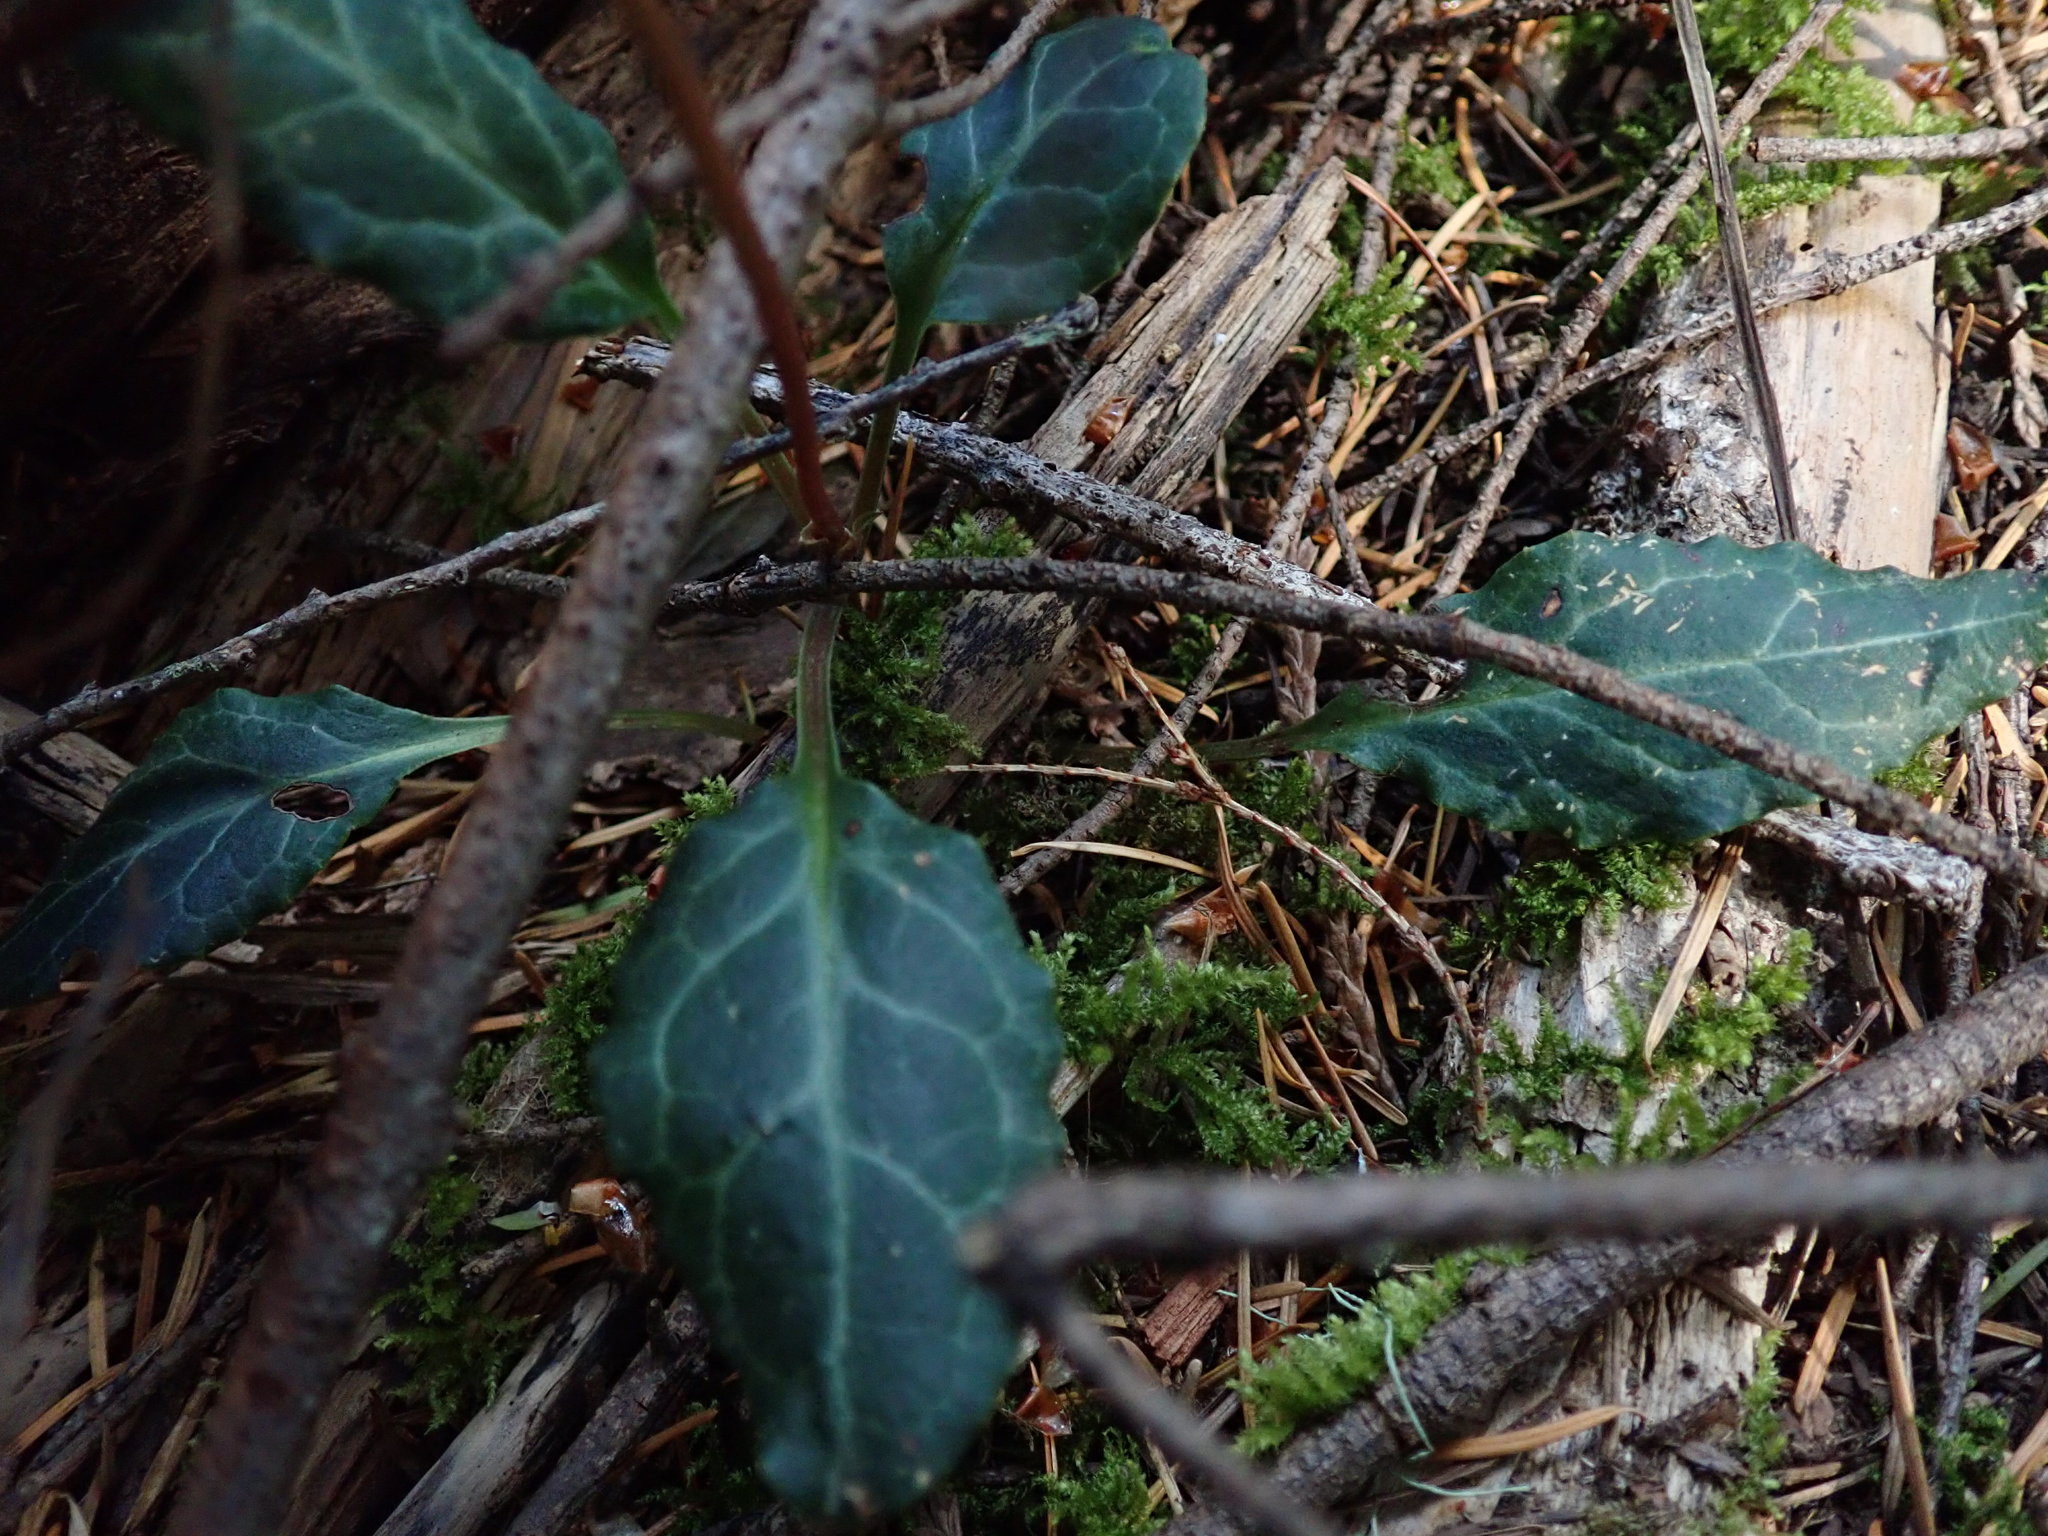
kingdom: Plantae
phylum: Tracheophyta
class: Magnoliopsida
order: Ericales
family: Ericaceae
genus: Pyrola
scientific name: Pyrola picta
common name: White-vein wintergreen
